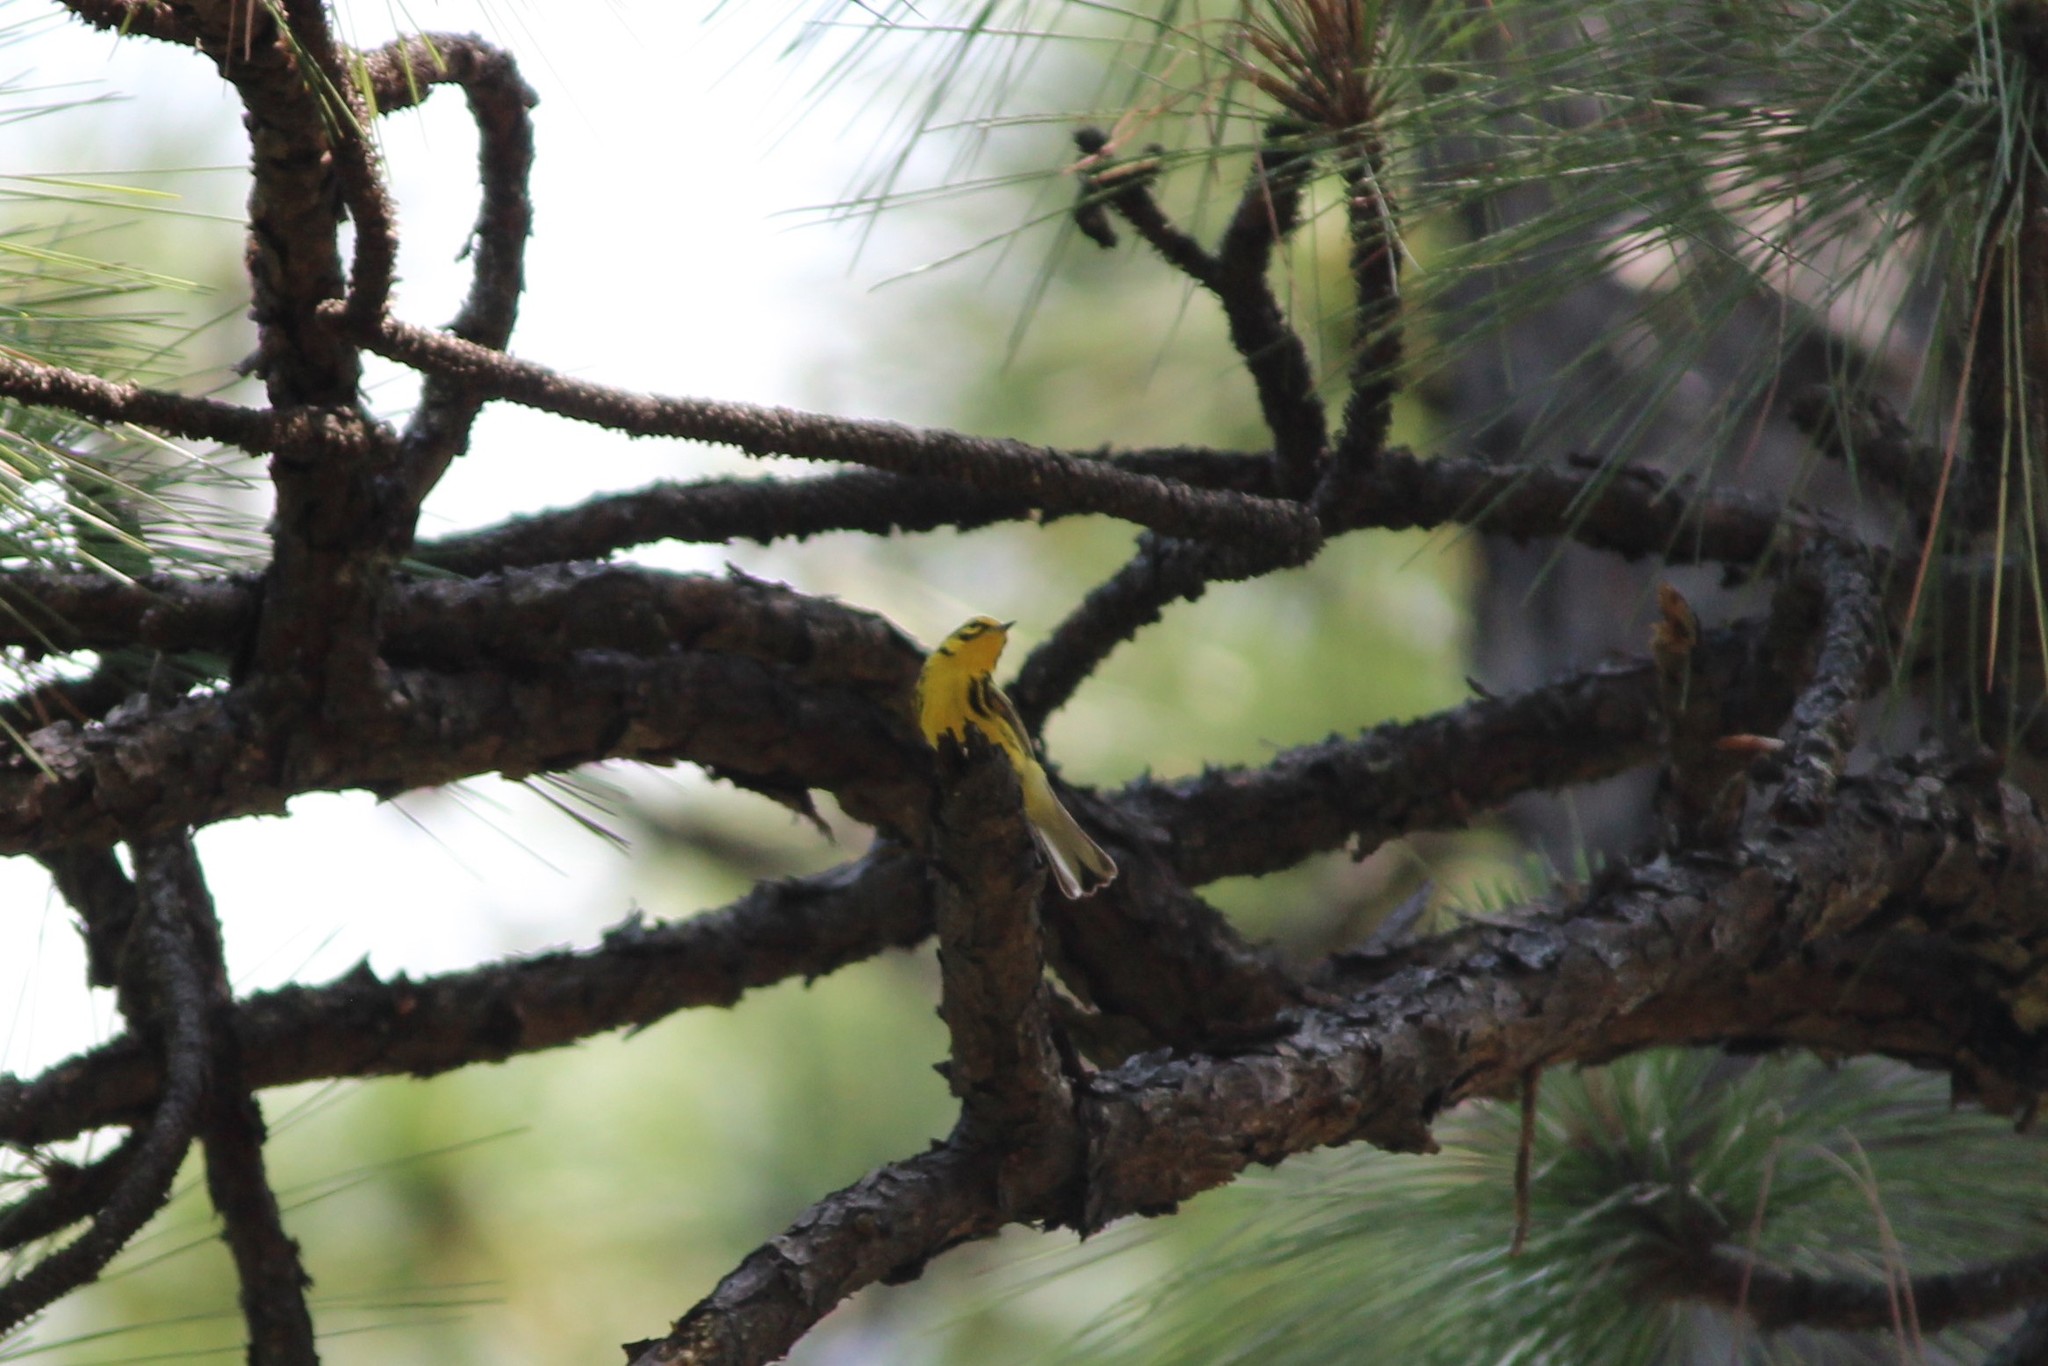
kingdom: Animalia
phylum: Chordata
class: Aves
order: Passeriformes
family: Parulidae
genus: Setophaga
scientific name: Setophaga discolor
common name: Prairie warbler
